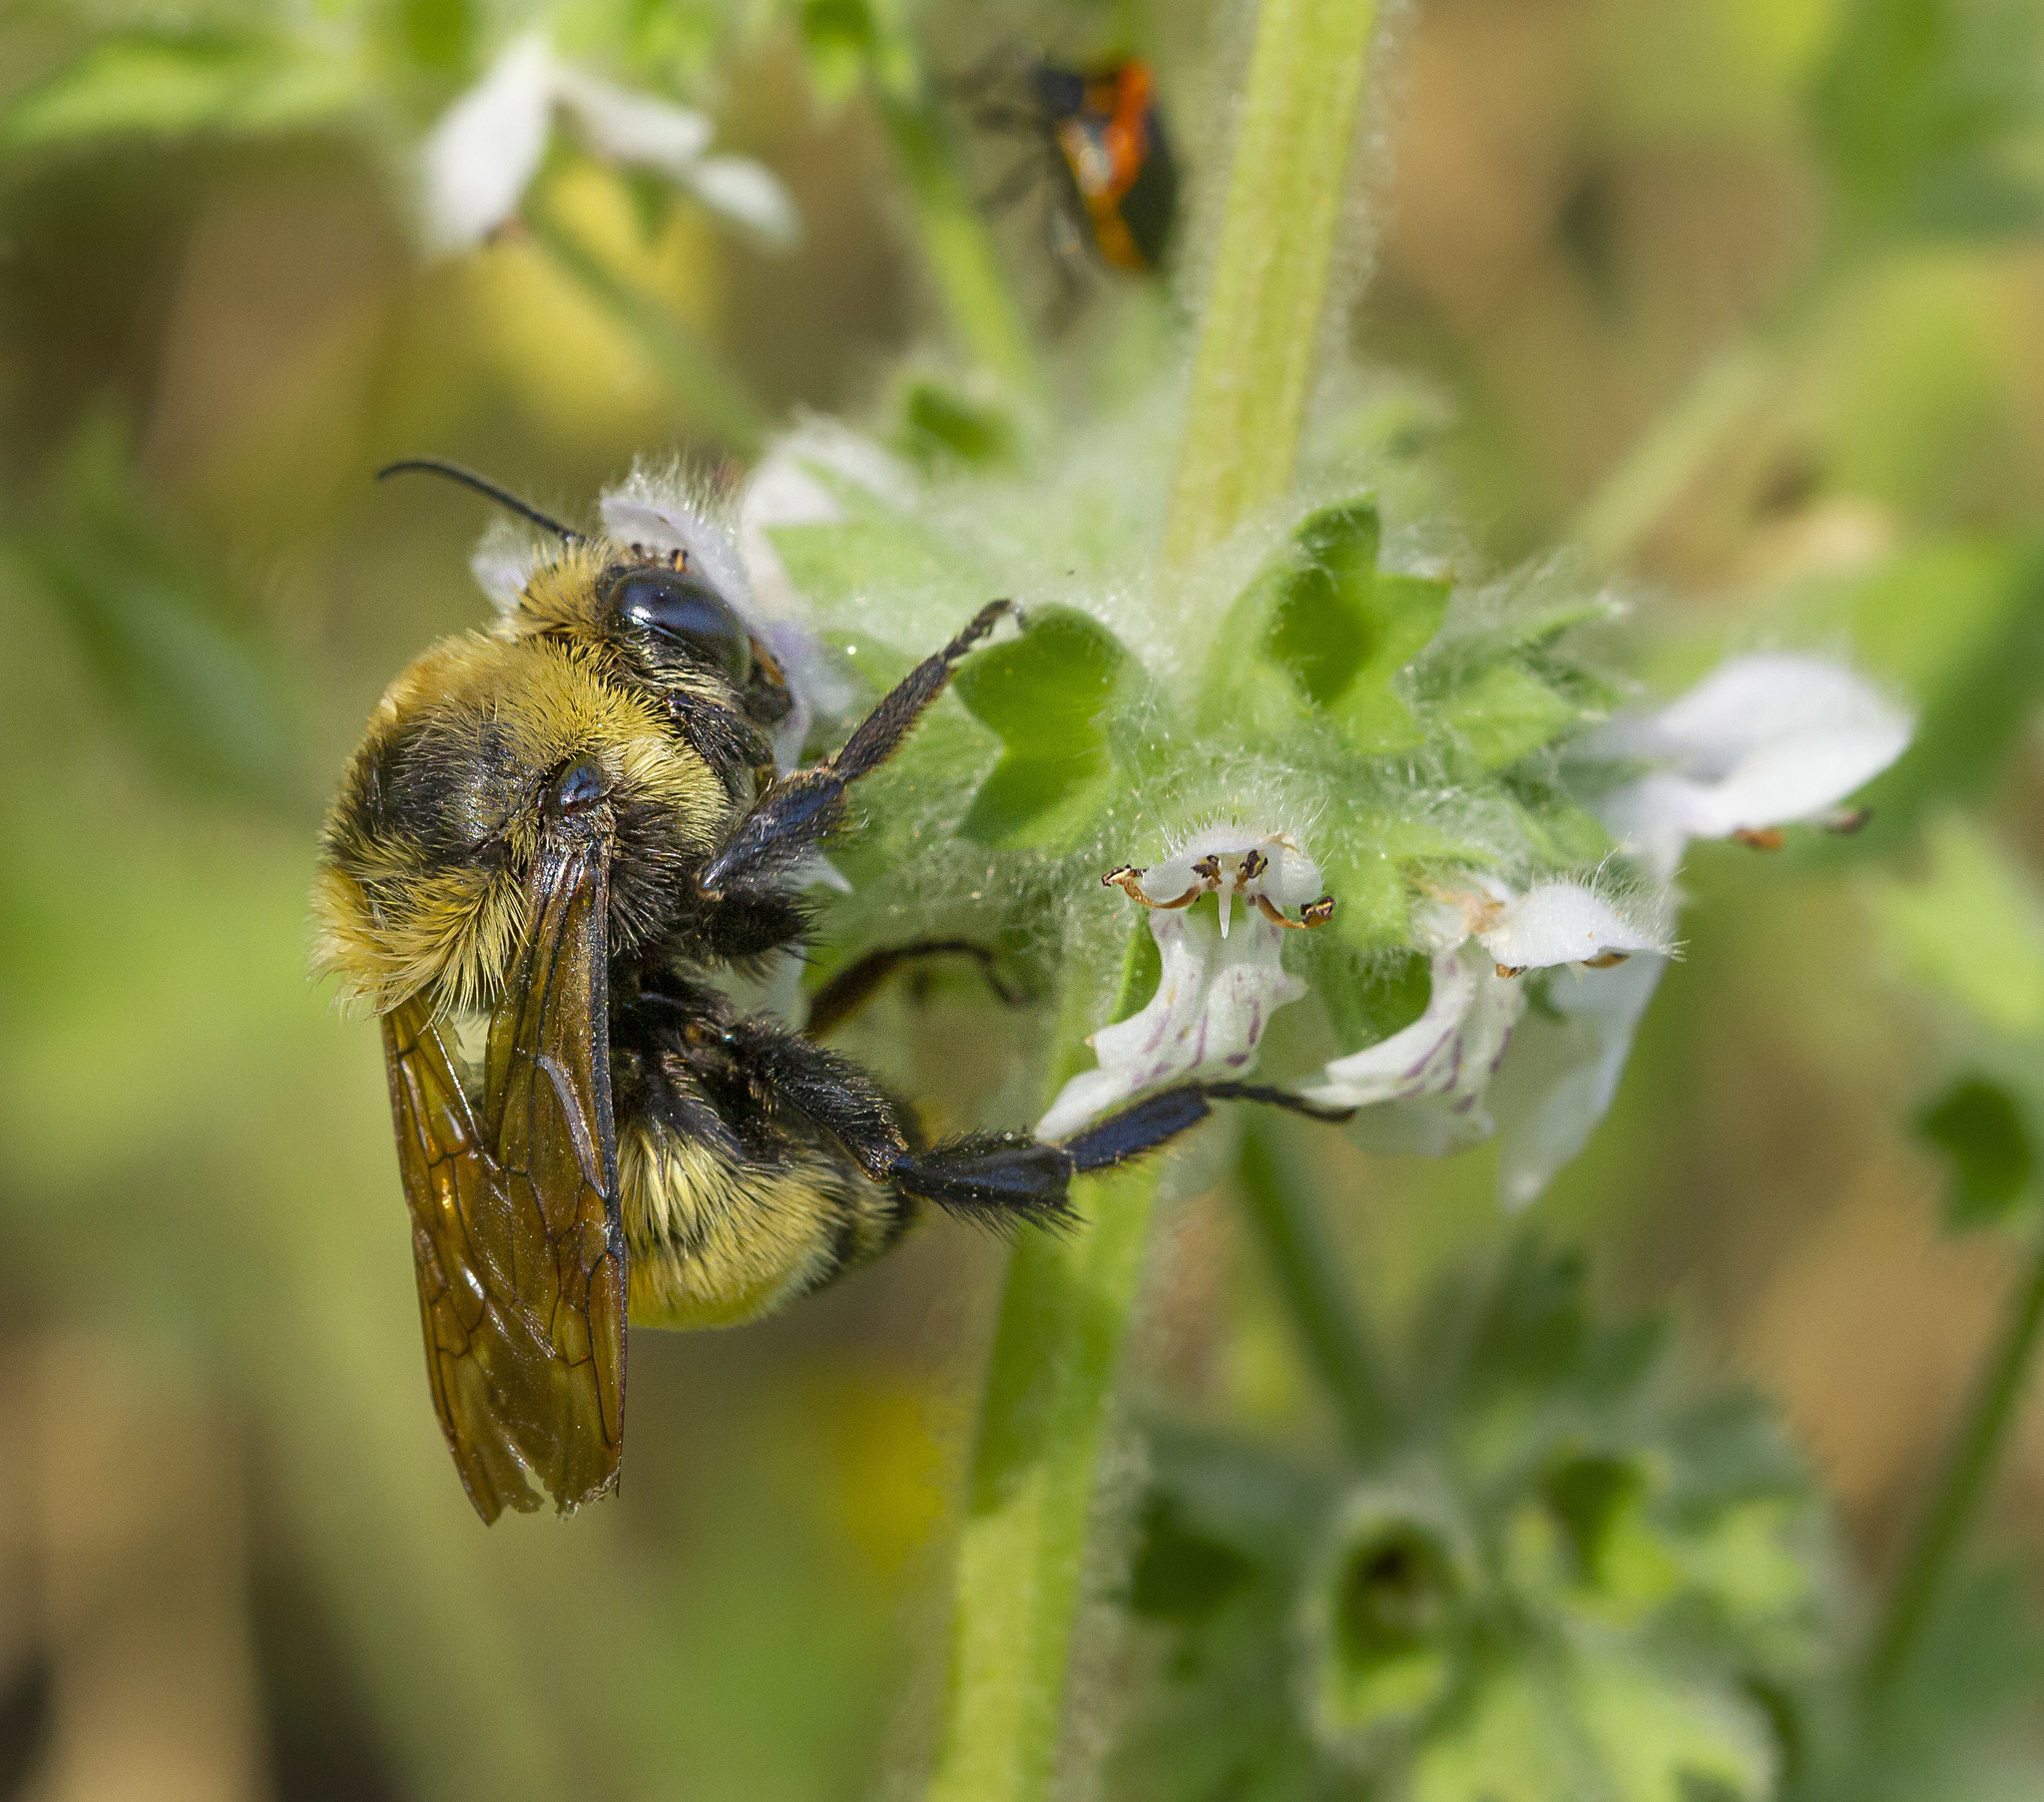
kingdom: Animalia
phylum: Arthropoda
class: Insecta
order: Hymenoptera
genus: Cullumanobombus
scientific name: Cullumanobombus
